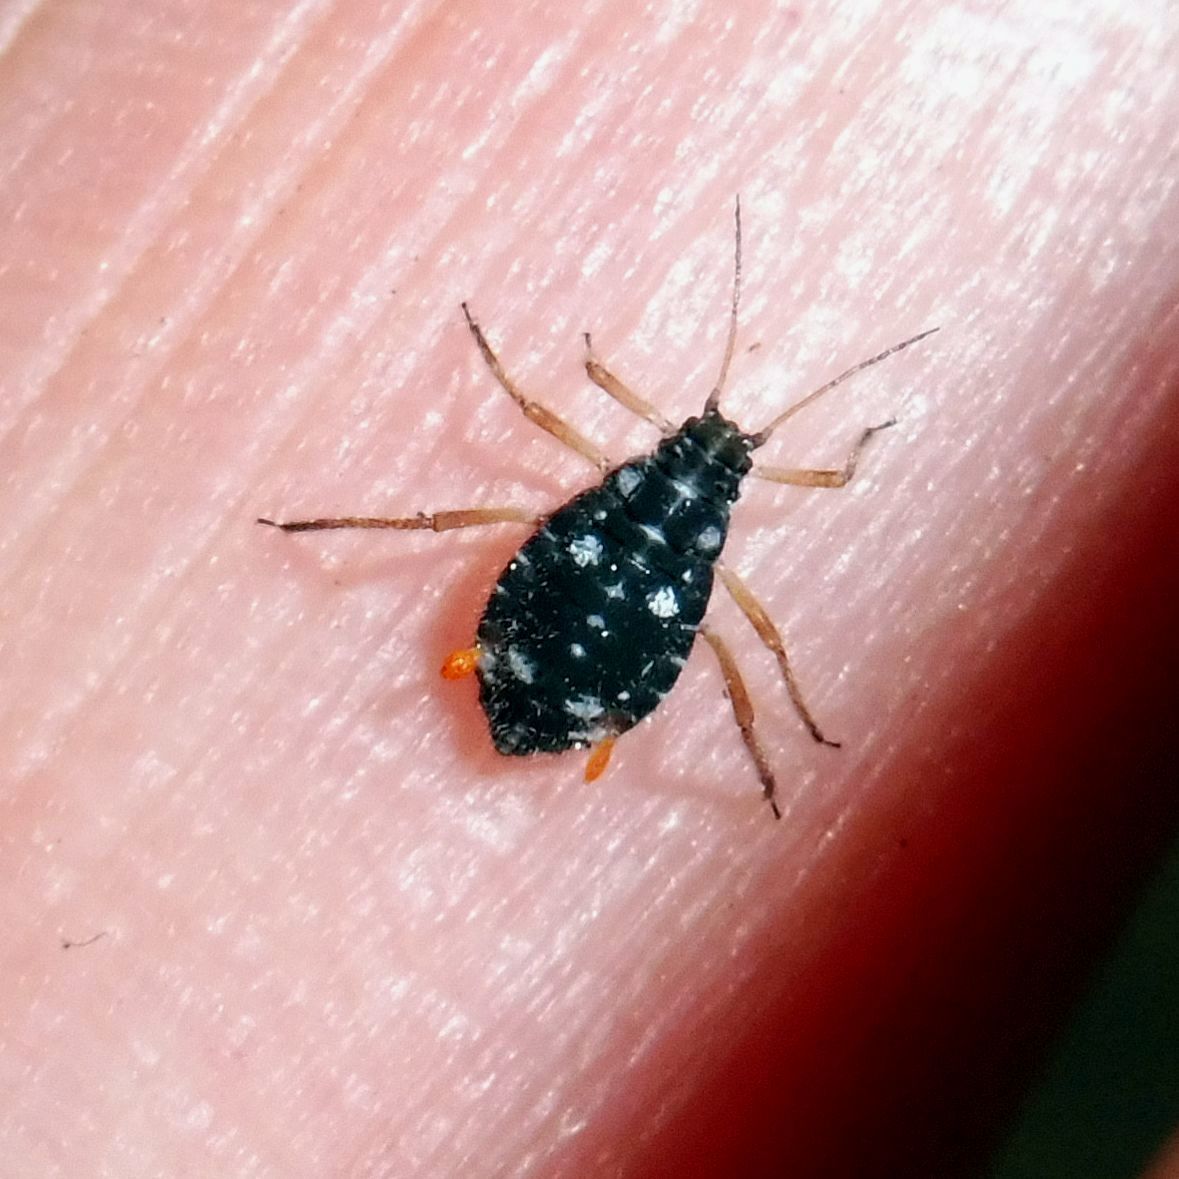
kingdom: Animalia
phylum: Arthropoda
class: Insecta
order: Hemiptera
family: Aphididae
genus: Pterocomma
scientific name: Pterocomma salicis
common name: Aphid
